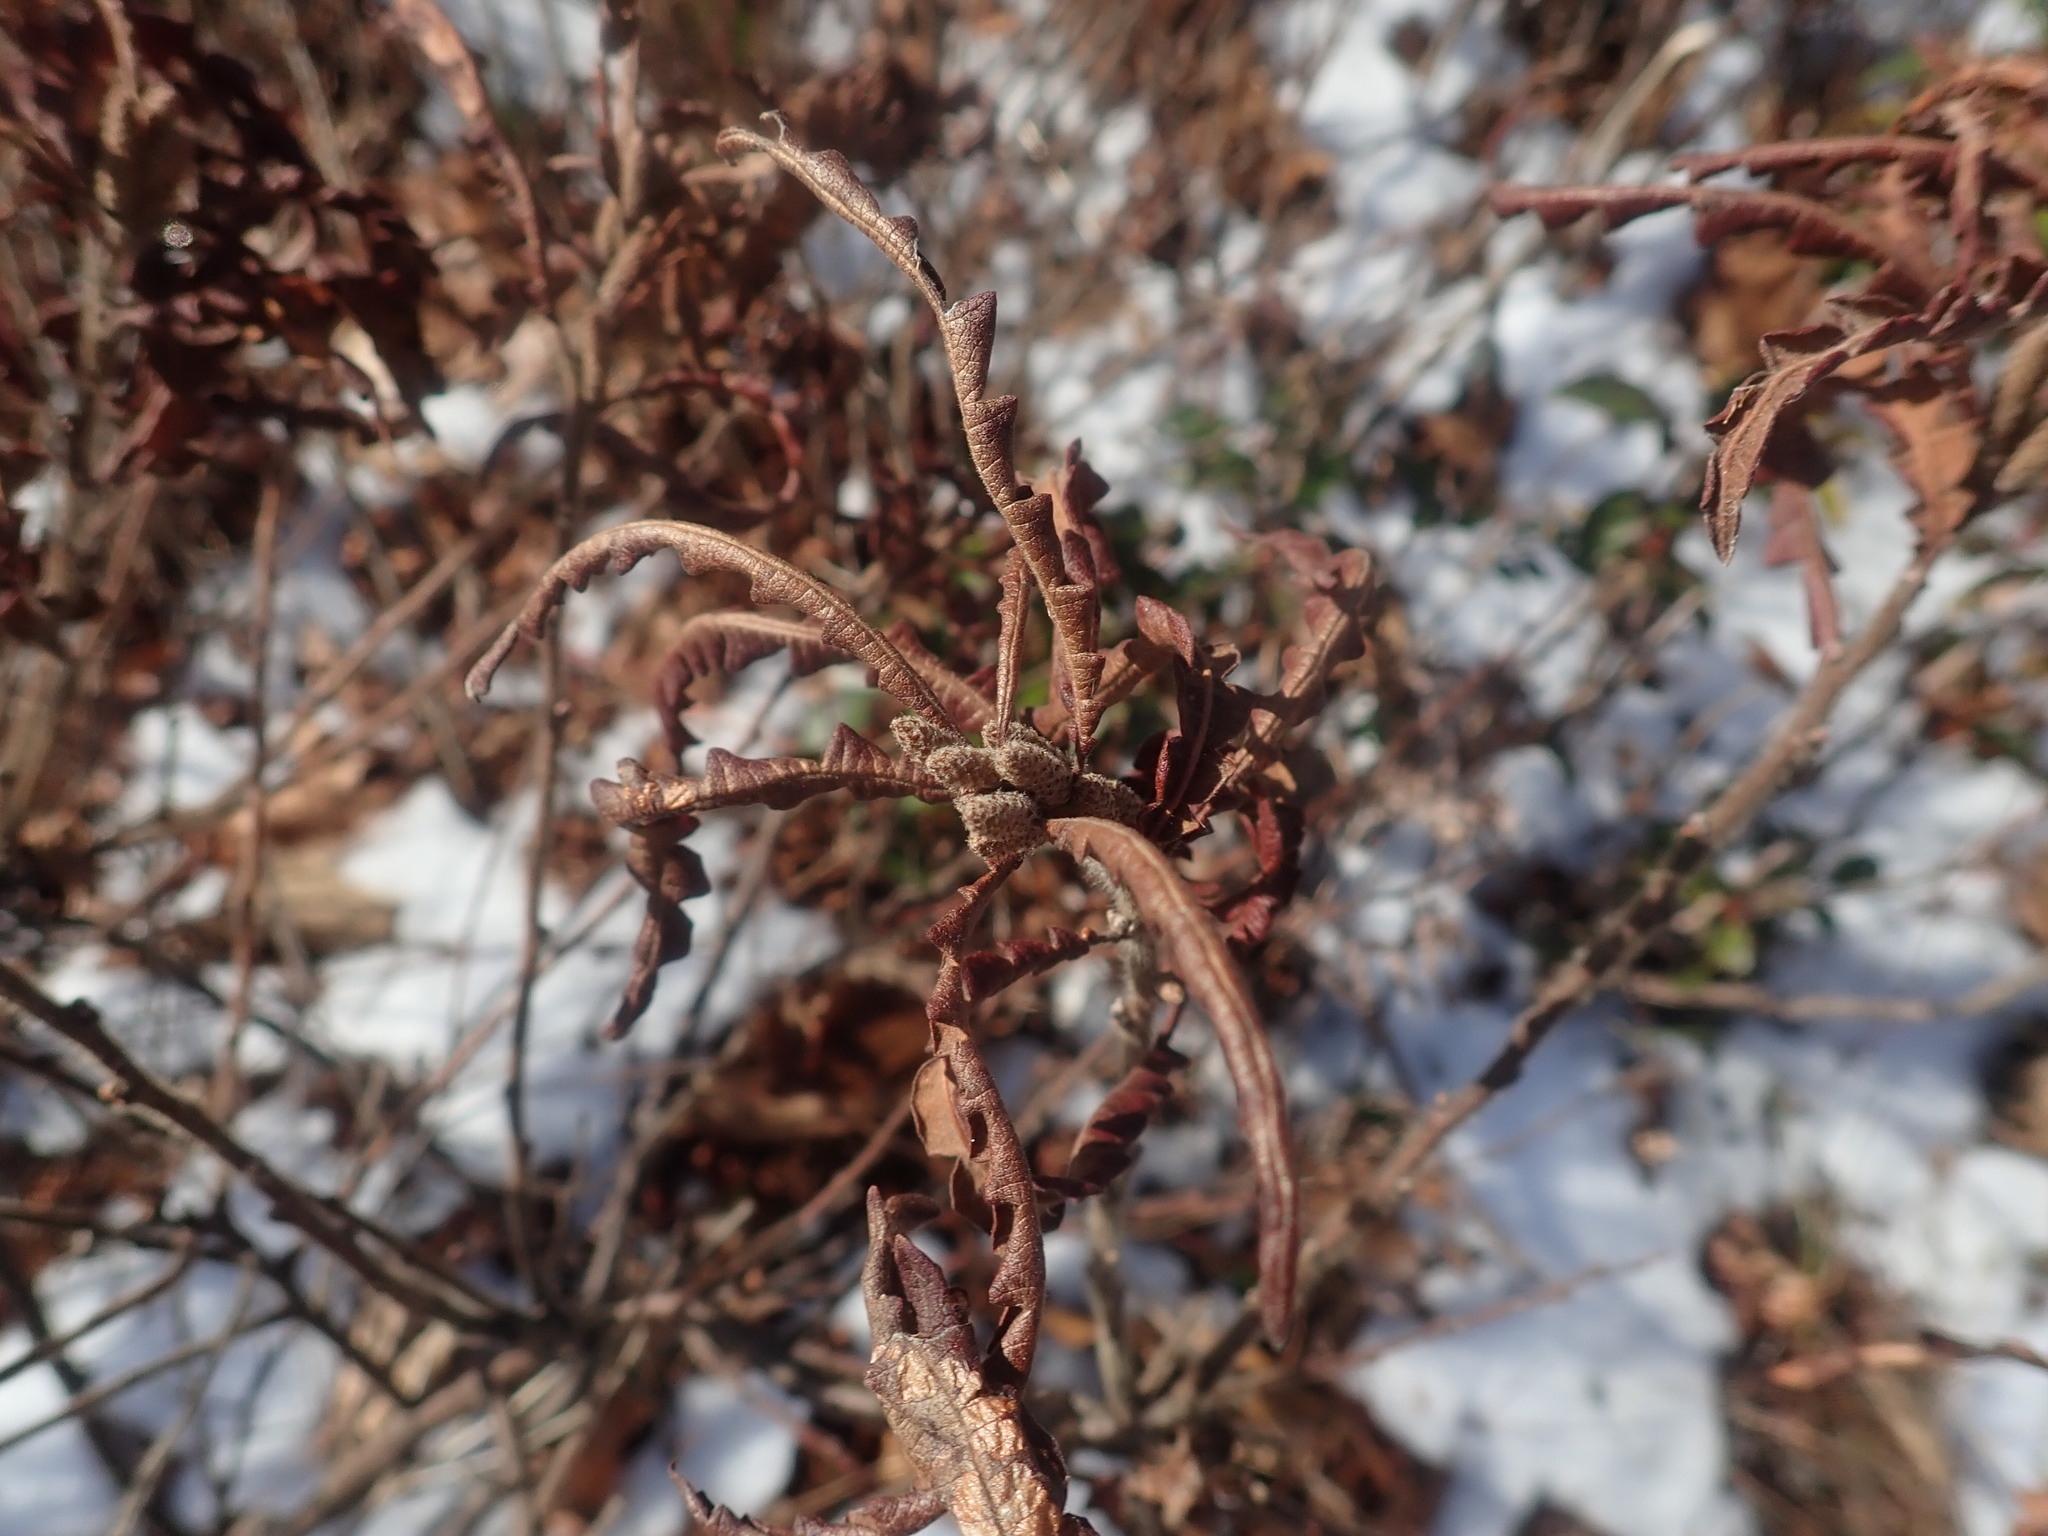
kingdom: Plantae
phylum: Tracheophyta
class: Magnoliopsida
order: Fagales
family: Myricaceae
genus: Comptonia
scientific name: Comptonia peregrina
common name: Sweet-fern
